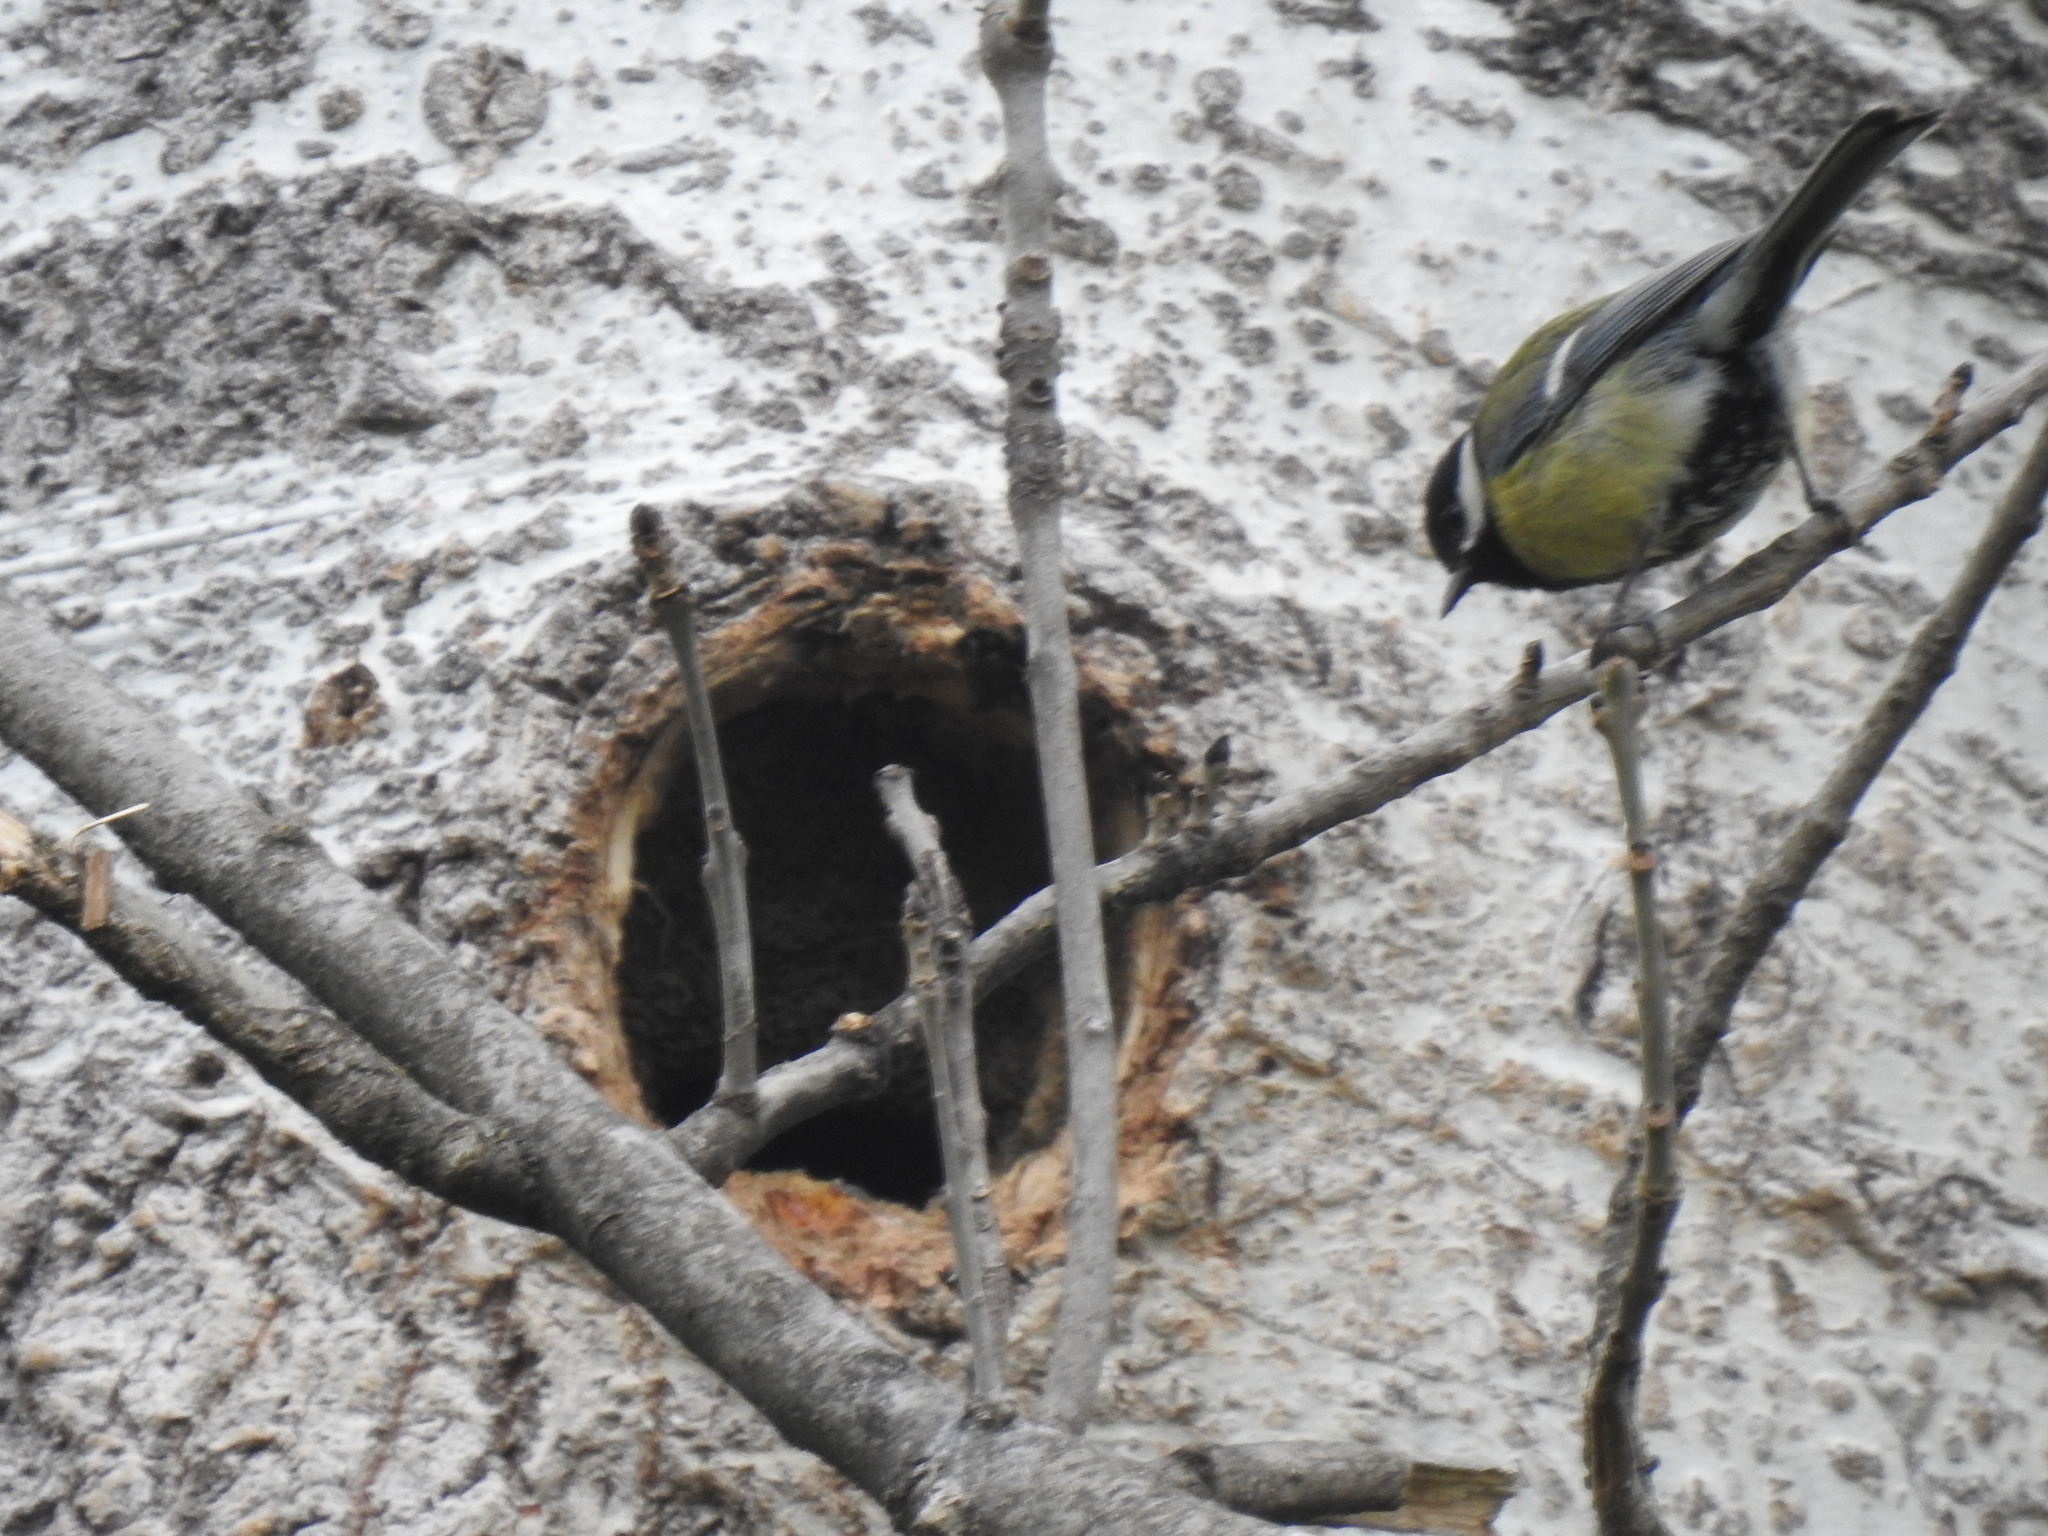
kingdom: Animalia
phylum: Chordata
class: Aves
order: Passeriformes
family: Paridae
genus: Parus
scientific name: Parus major
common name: Great tit
